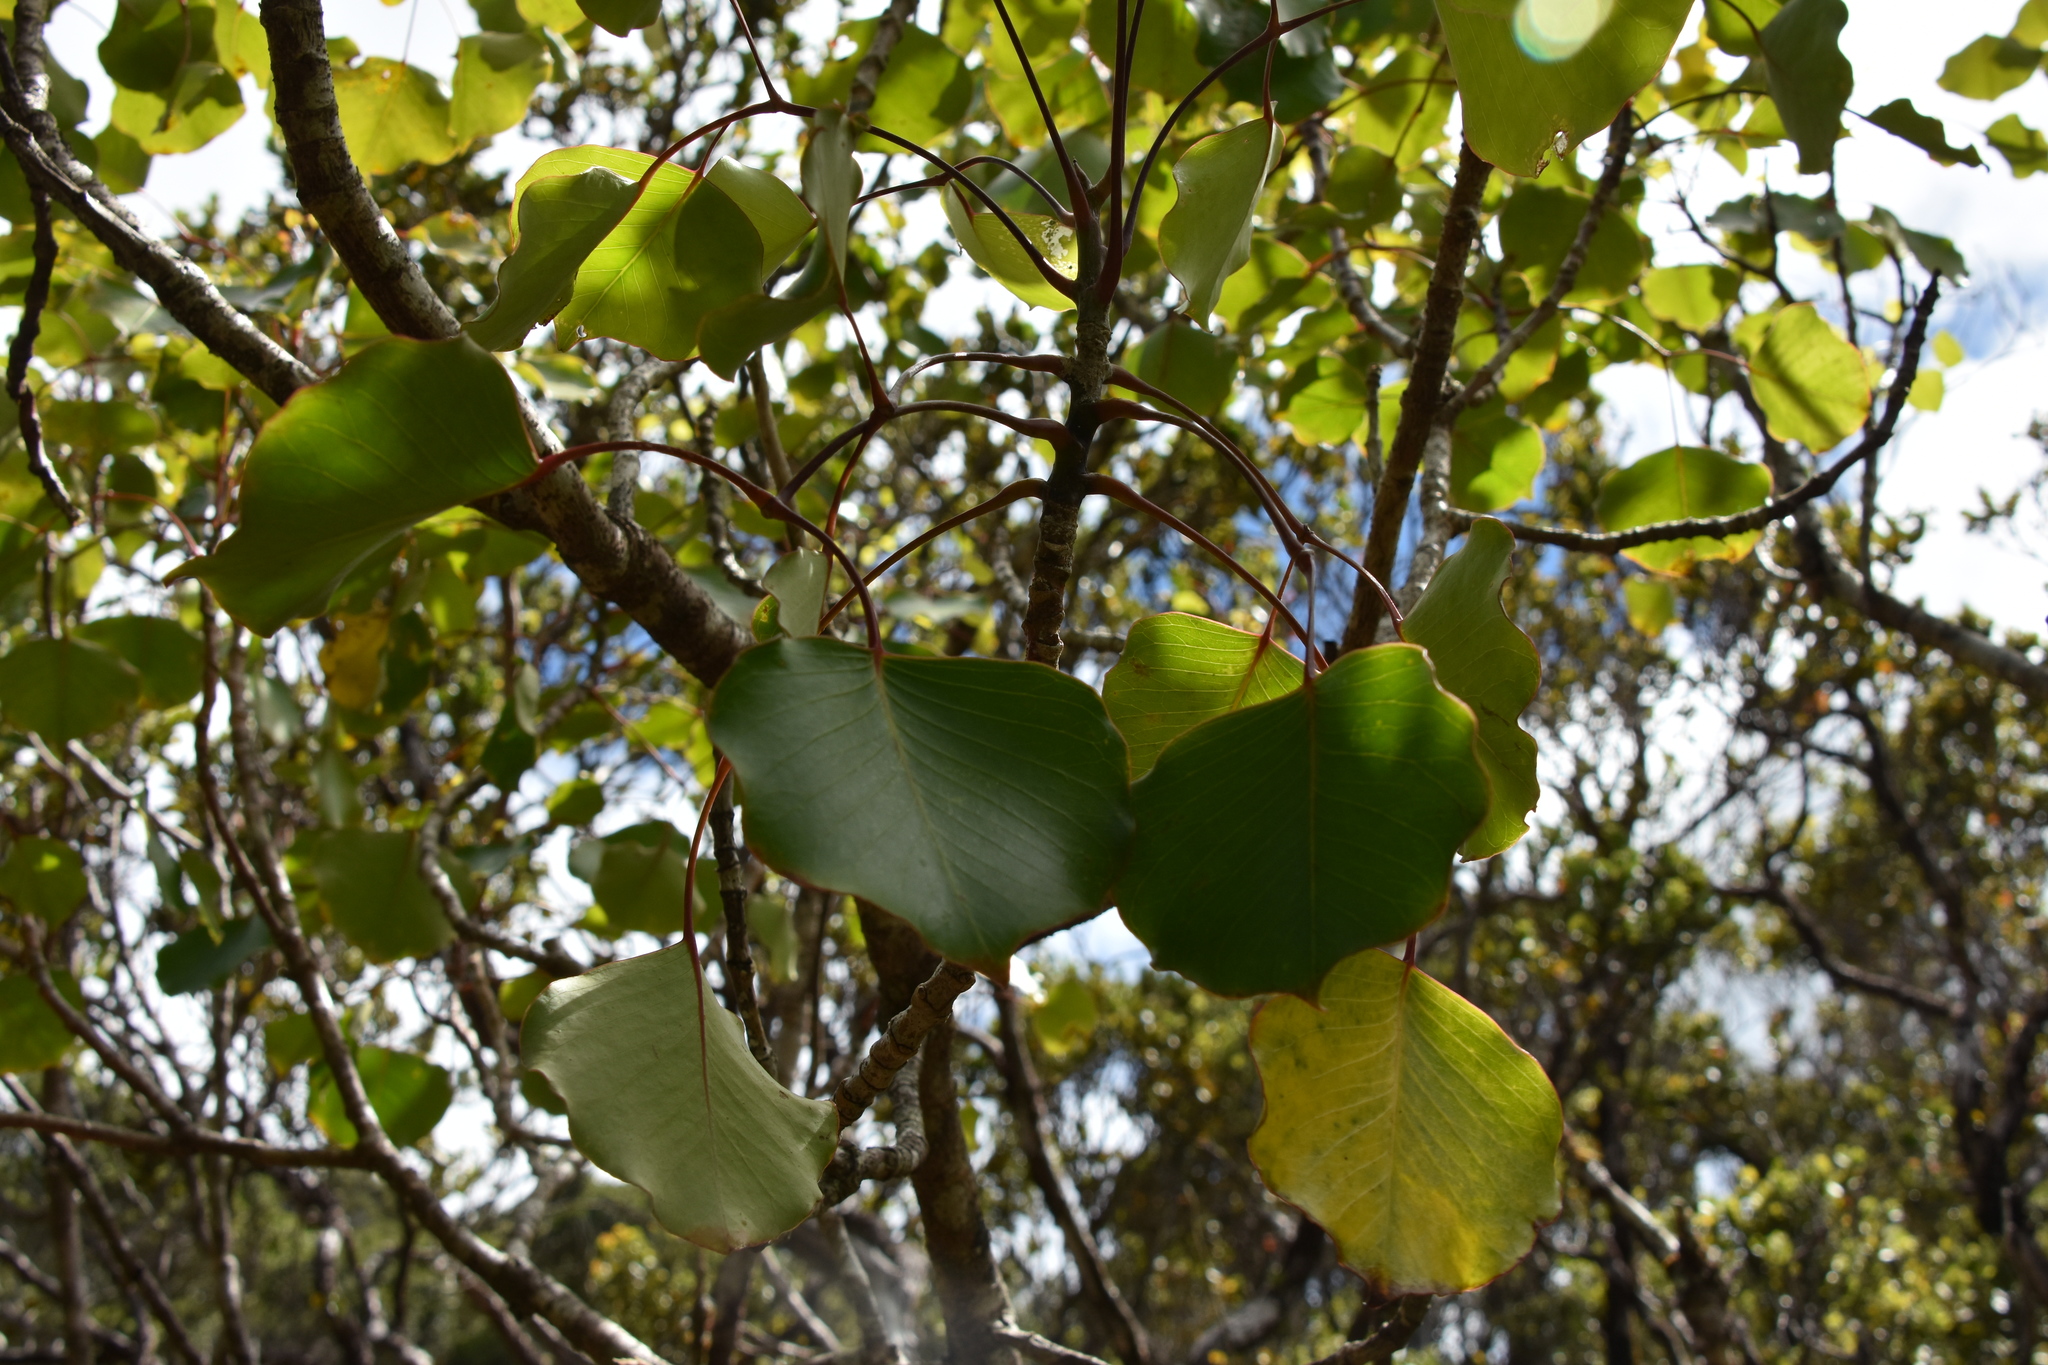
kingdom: Plantae
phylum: Tracheophyta
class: Magnoliopsida
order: Apiales
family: Araliaceae
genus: Cheirodendron
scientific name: Cheirodendron platyphyllum
